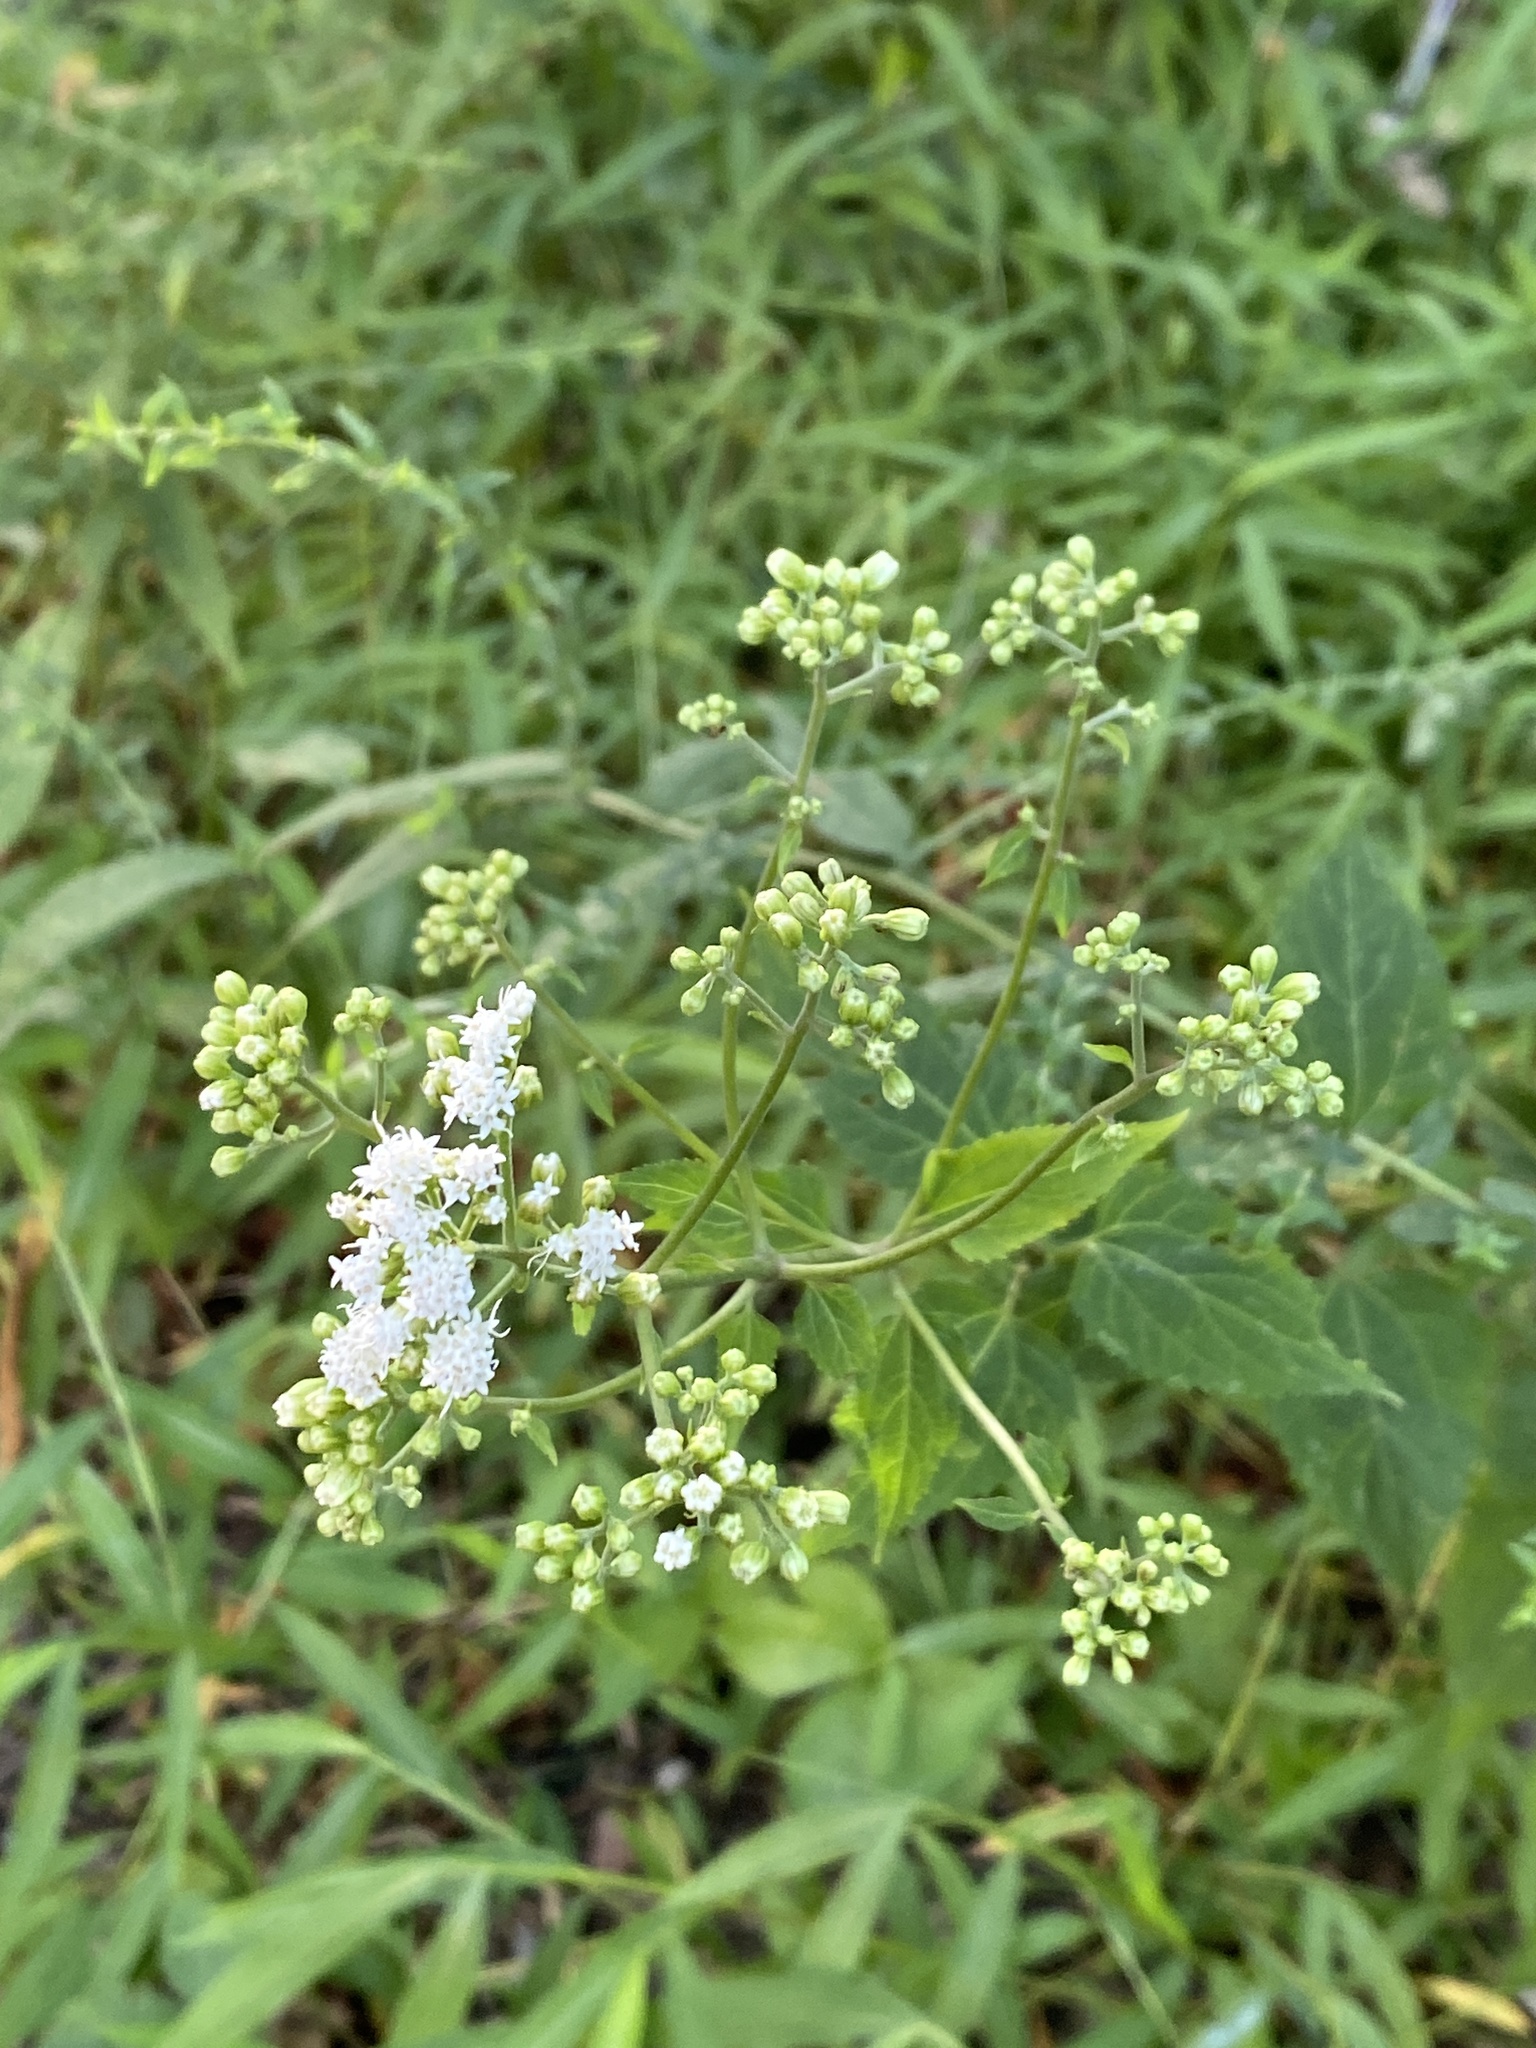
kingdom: Plantae
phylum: Tracheophyta
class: Magnoliopsida
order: Asterales
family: Asteraceae
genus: Ageratina
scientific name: Ageratina altissima
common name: White snakeroot
